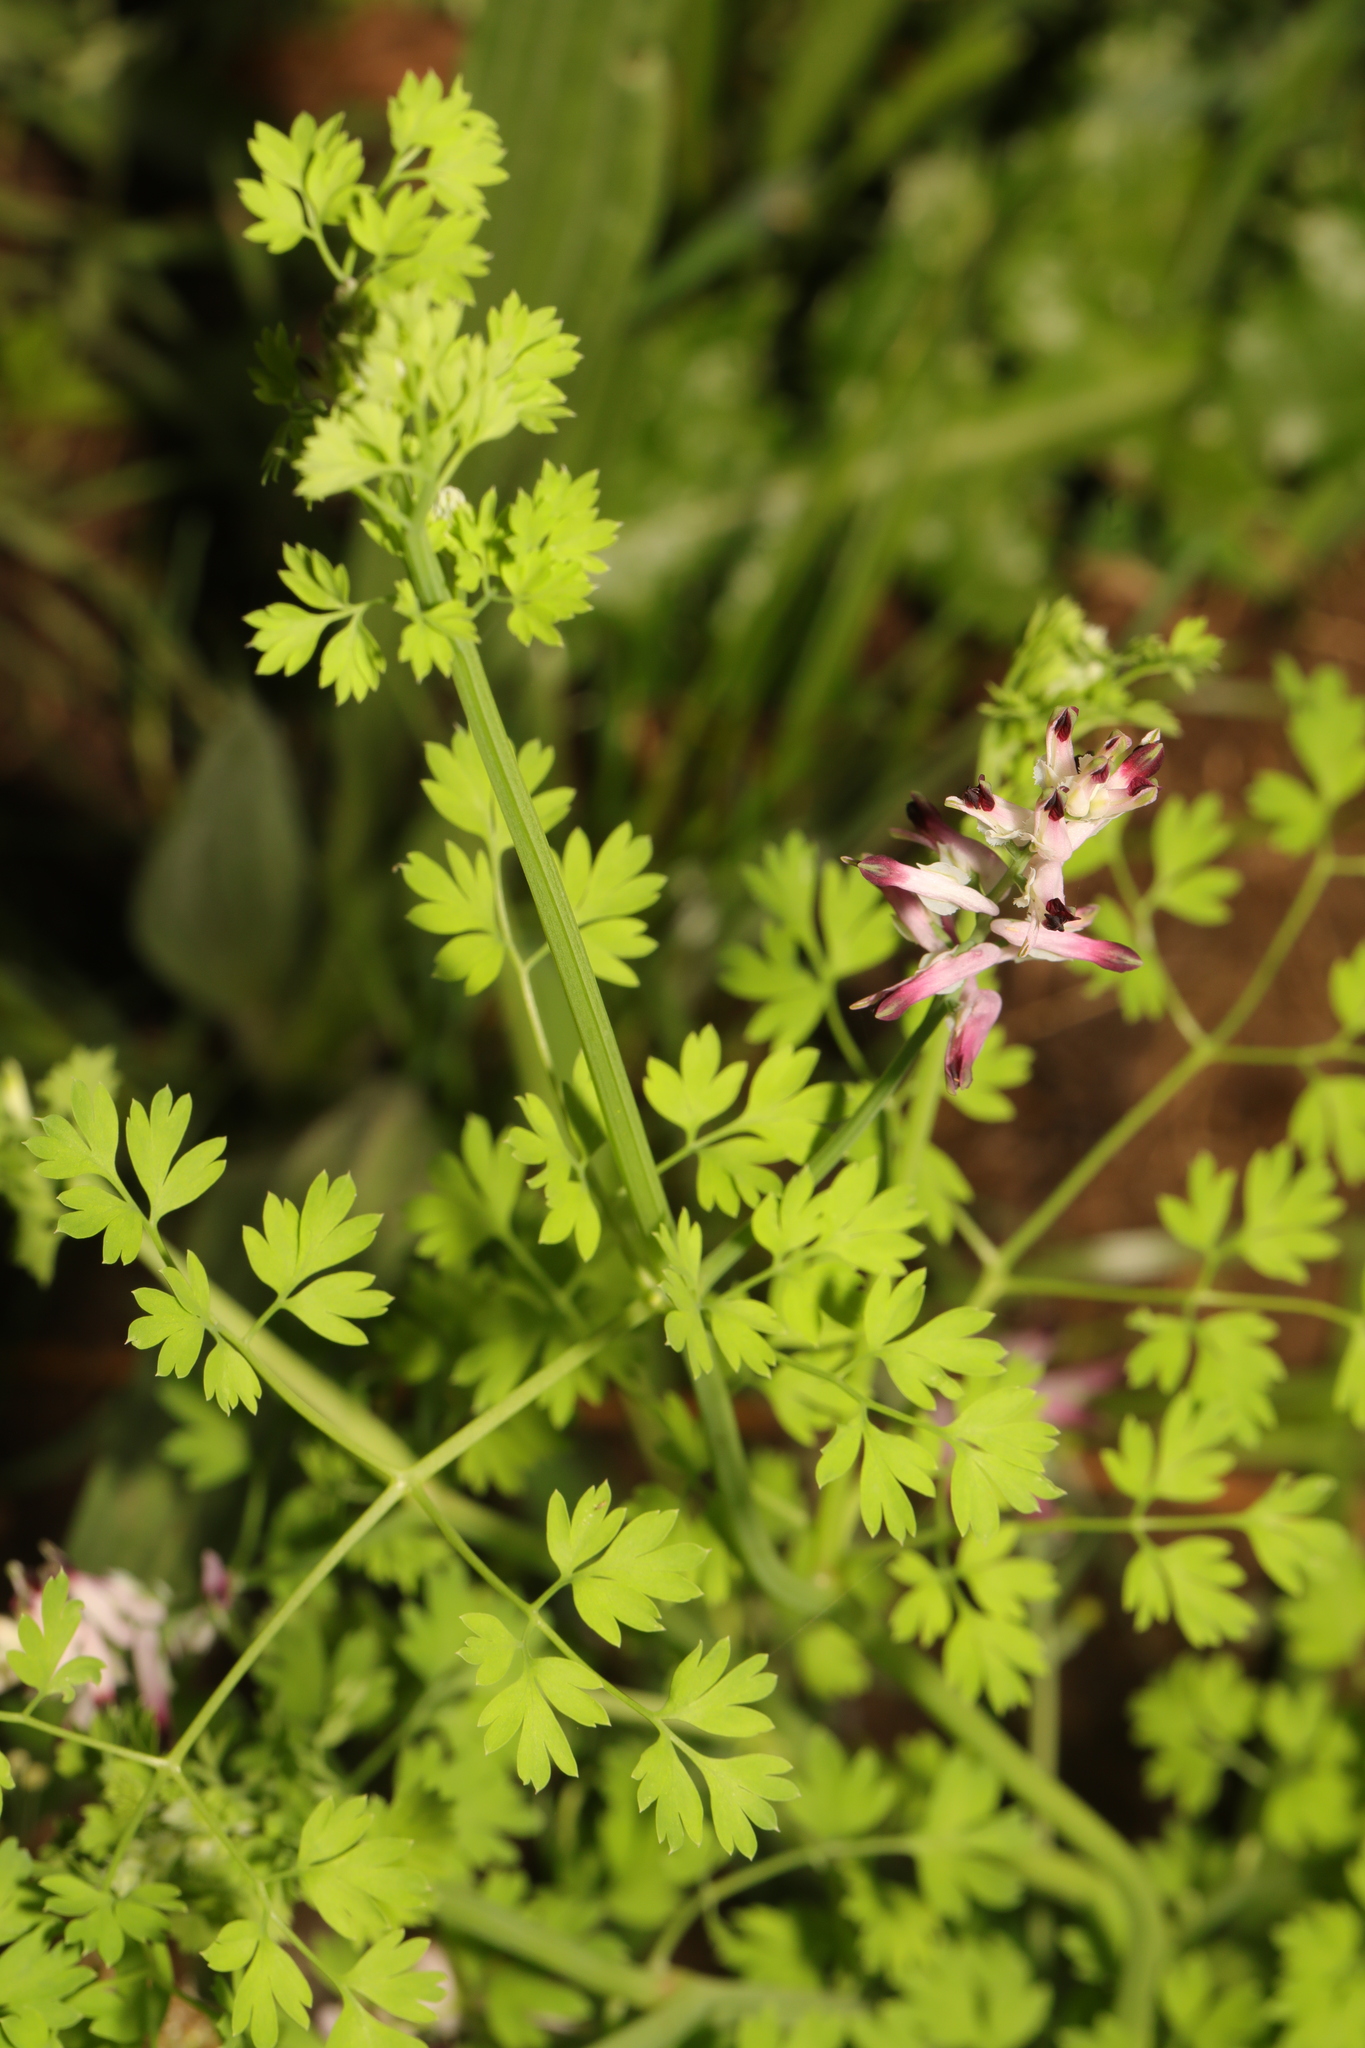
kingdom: Plantae
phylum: Tracheophyta
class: Magnoliopsida
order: Ranunculales
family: Papaveraceae
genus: Fumaria
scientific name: Fumaria muralis
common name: Common ramping-fumitory
